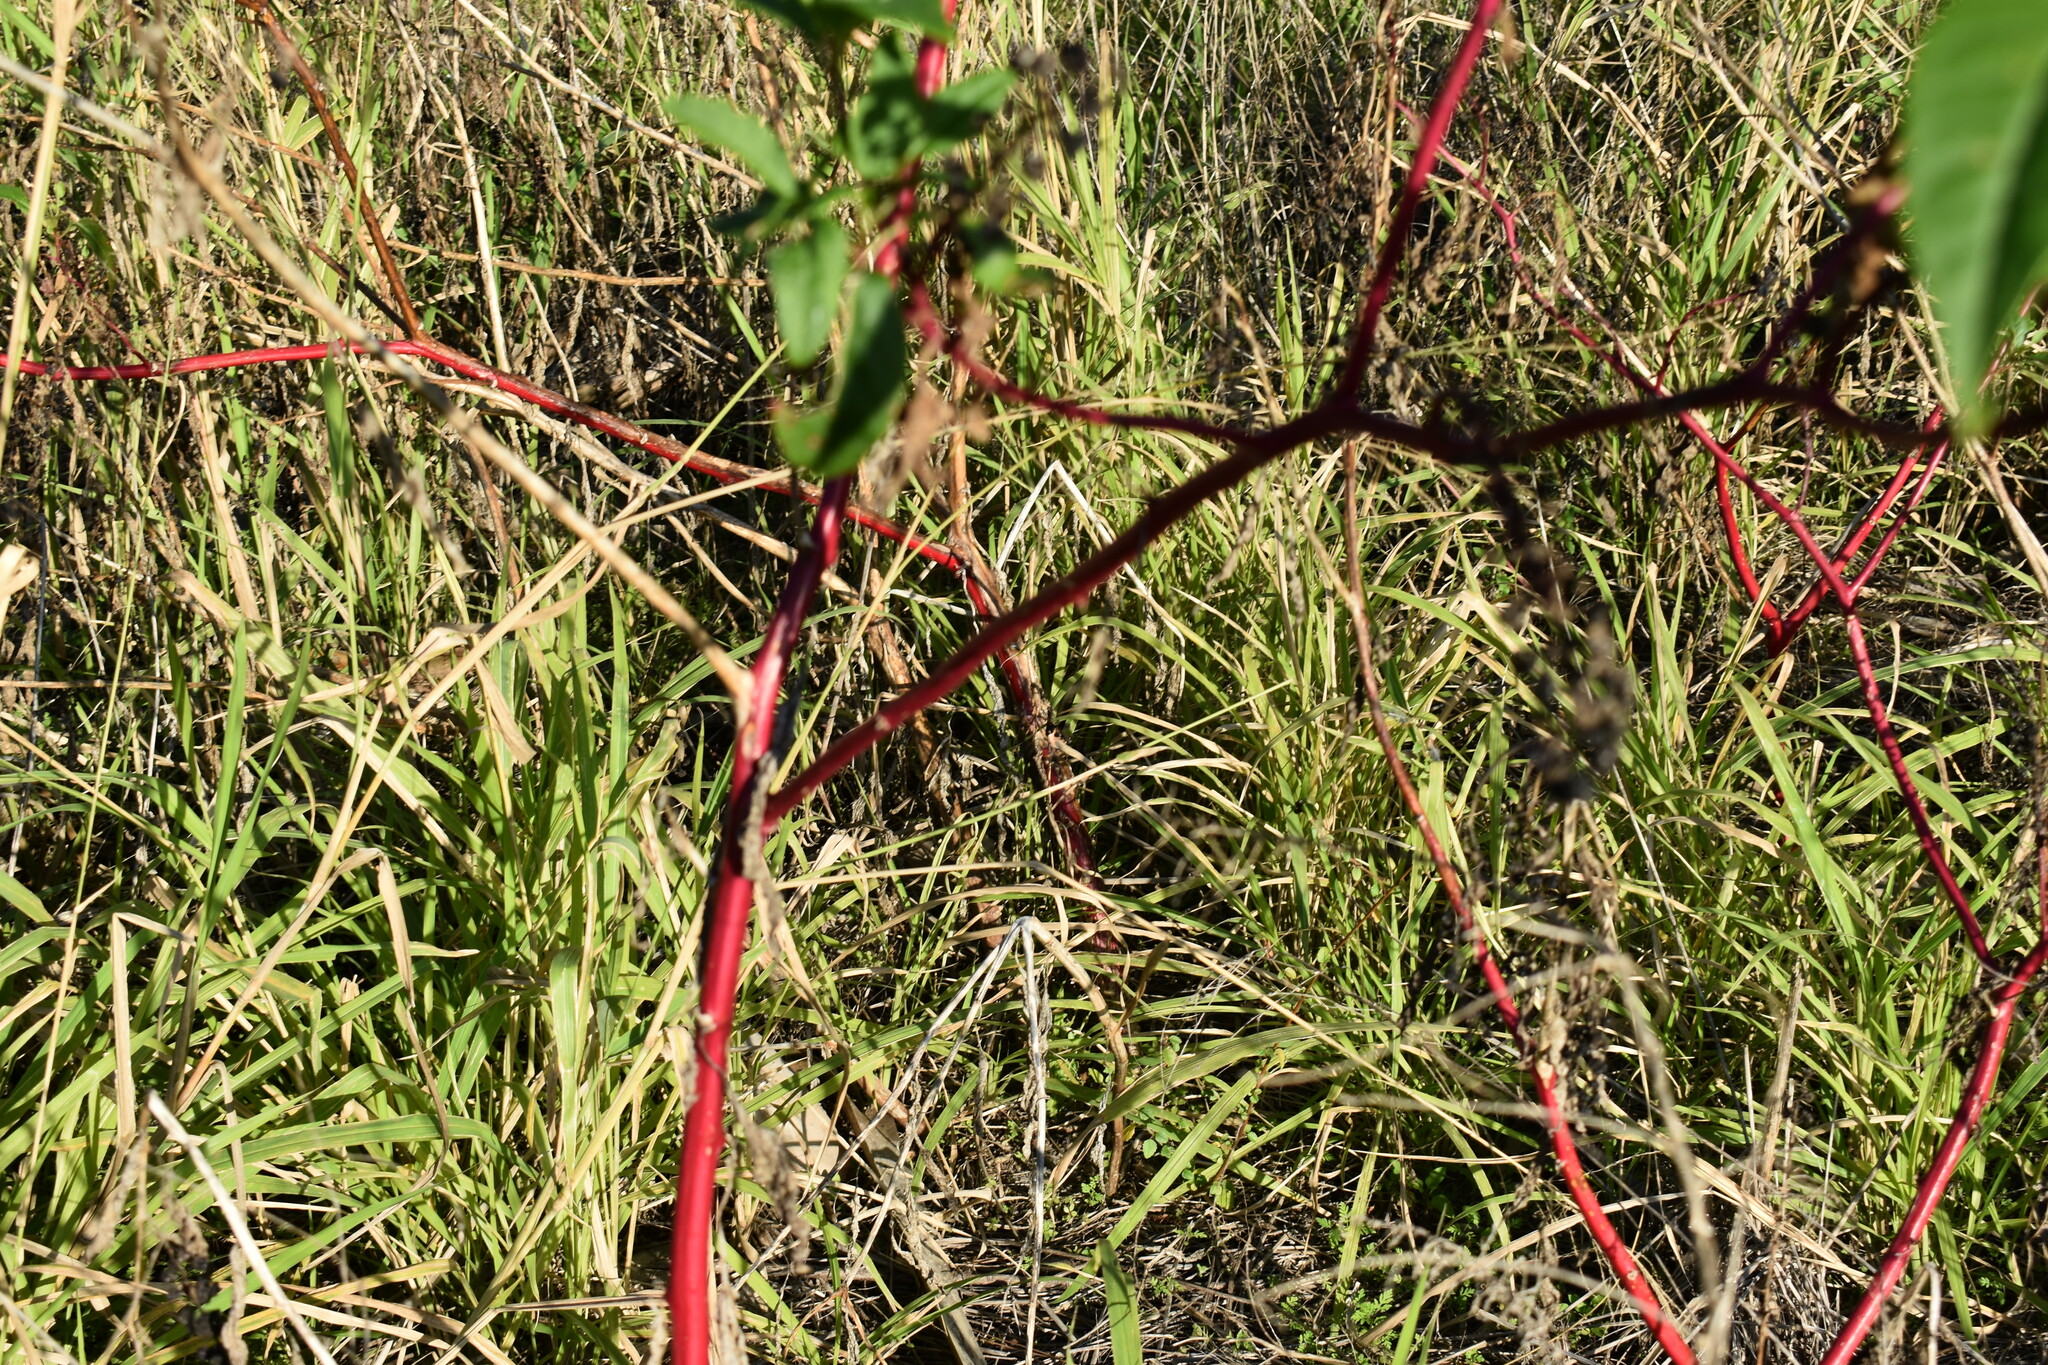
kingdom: Plantae
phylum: Tracheophyta
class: Magnoliopsida
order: Caryophyllales
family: Phytolaccaceae
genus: Phytolacca
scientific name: Phytolacca americana
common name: American pokeweed
